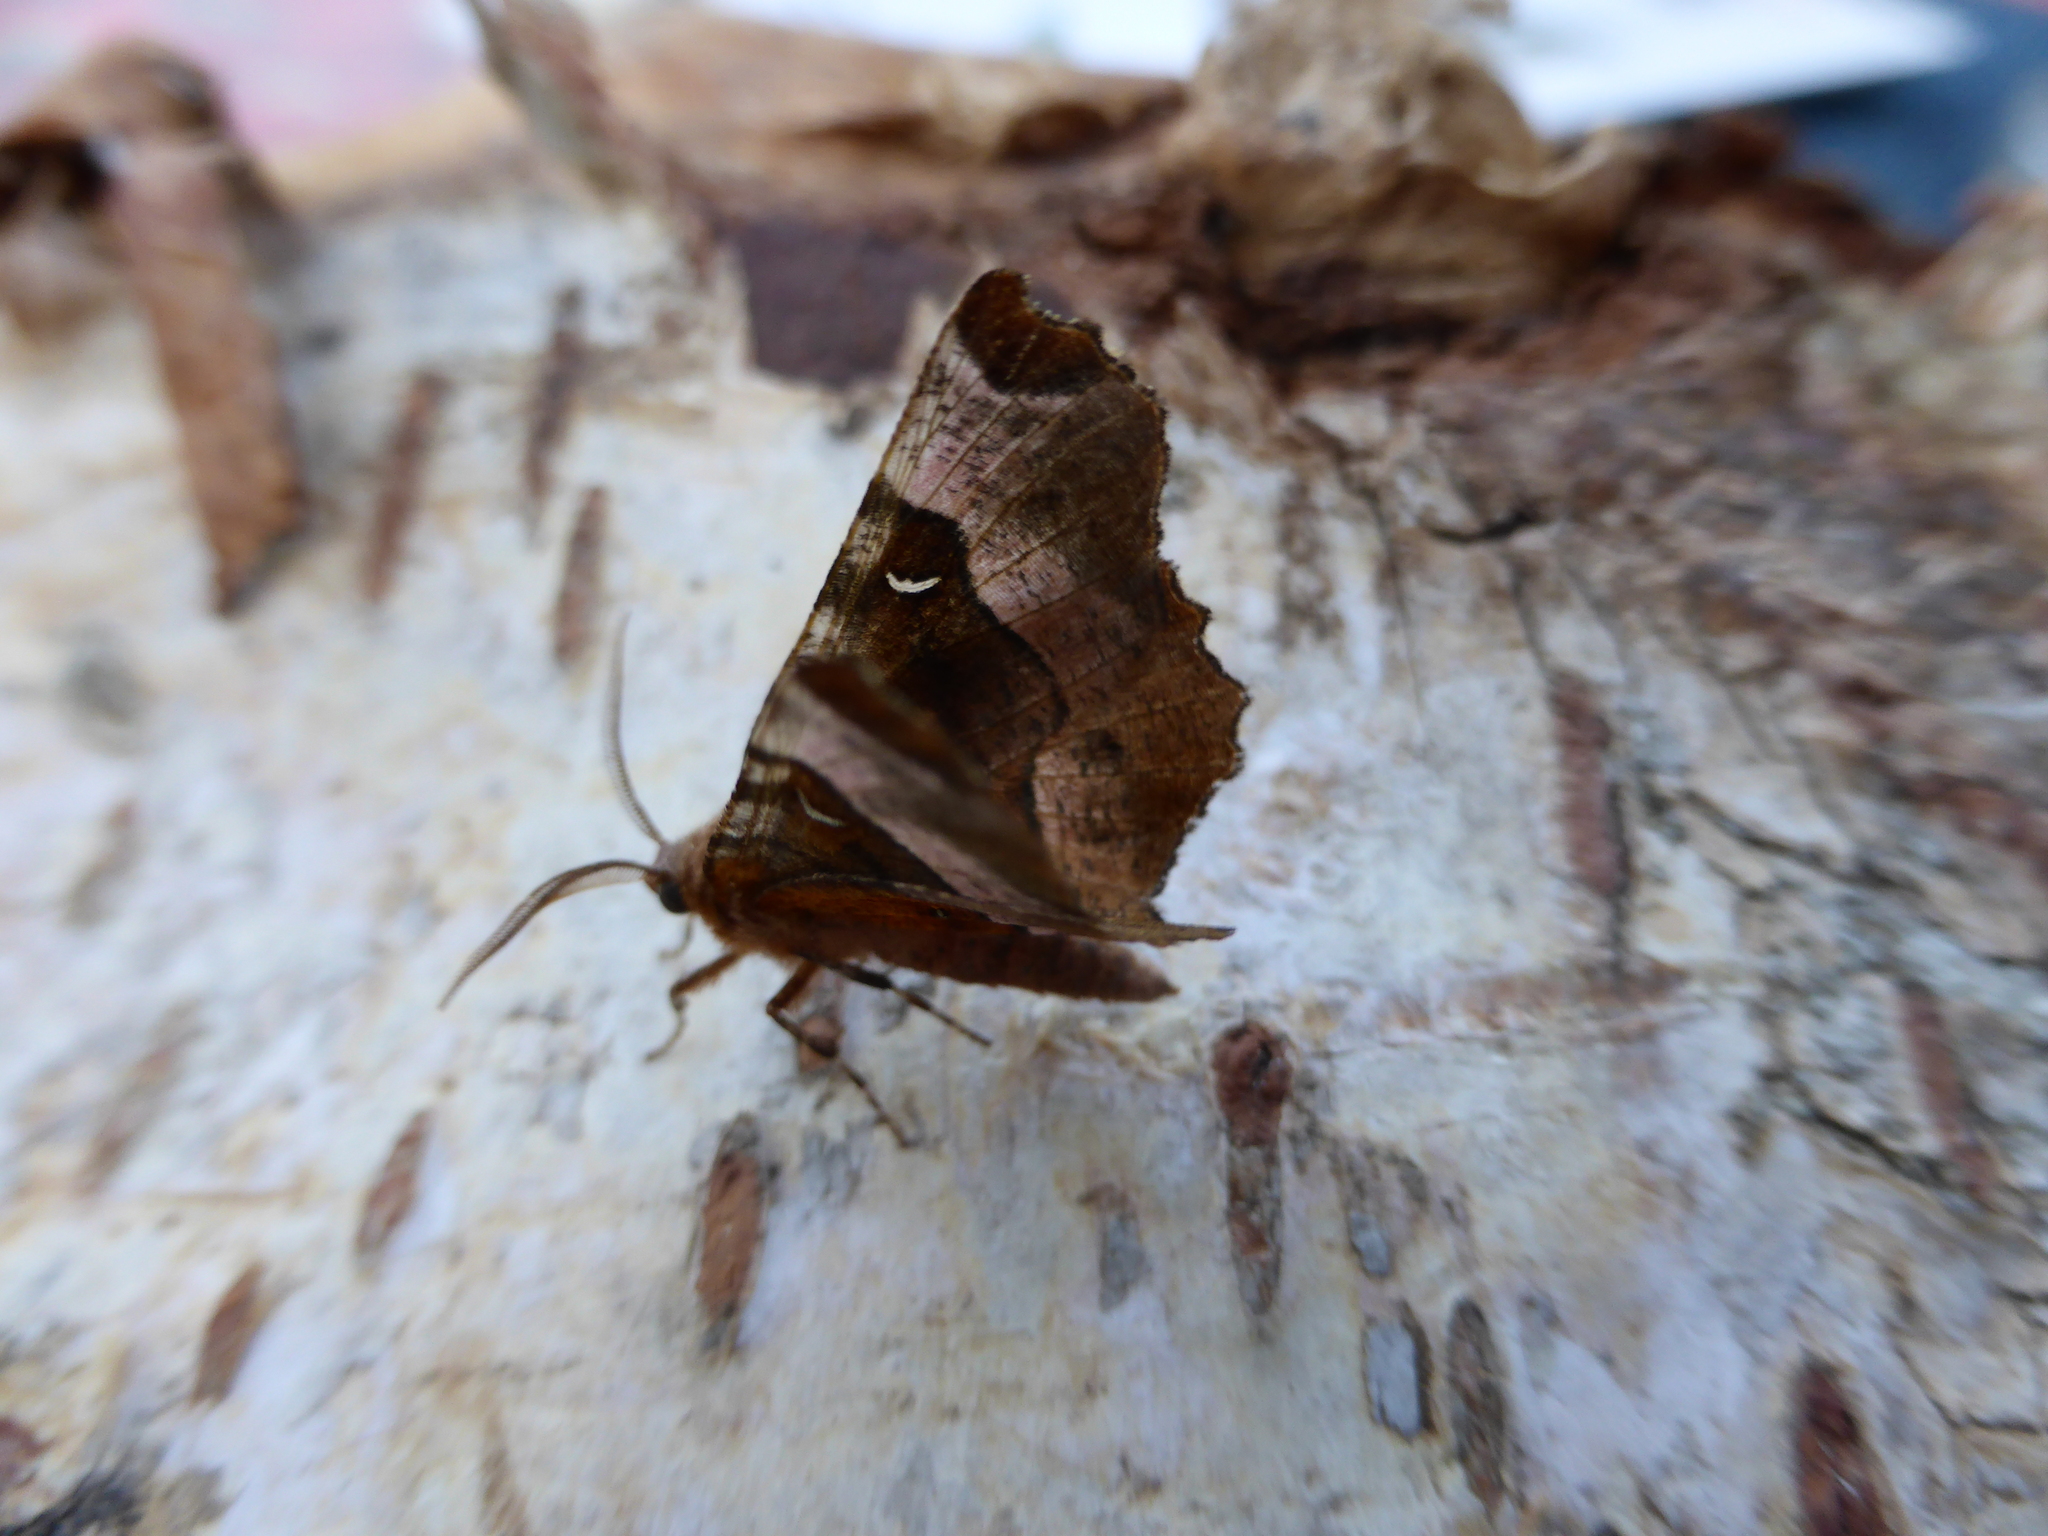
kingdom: Animalia
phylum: Arthropoda
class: Insecta
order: Lepidoptera
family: Geometridae
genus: Selenia
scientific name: Selenia tetralunaria
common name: Purple thorn
